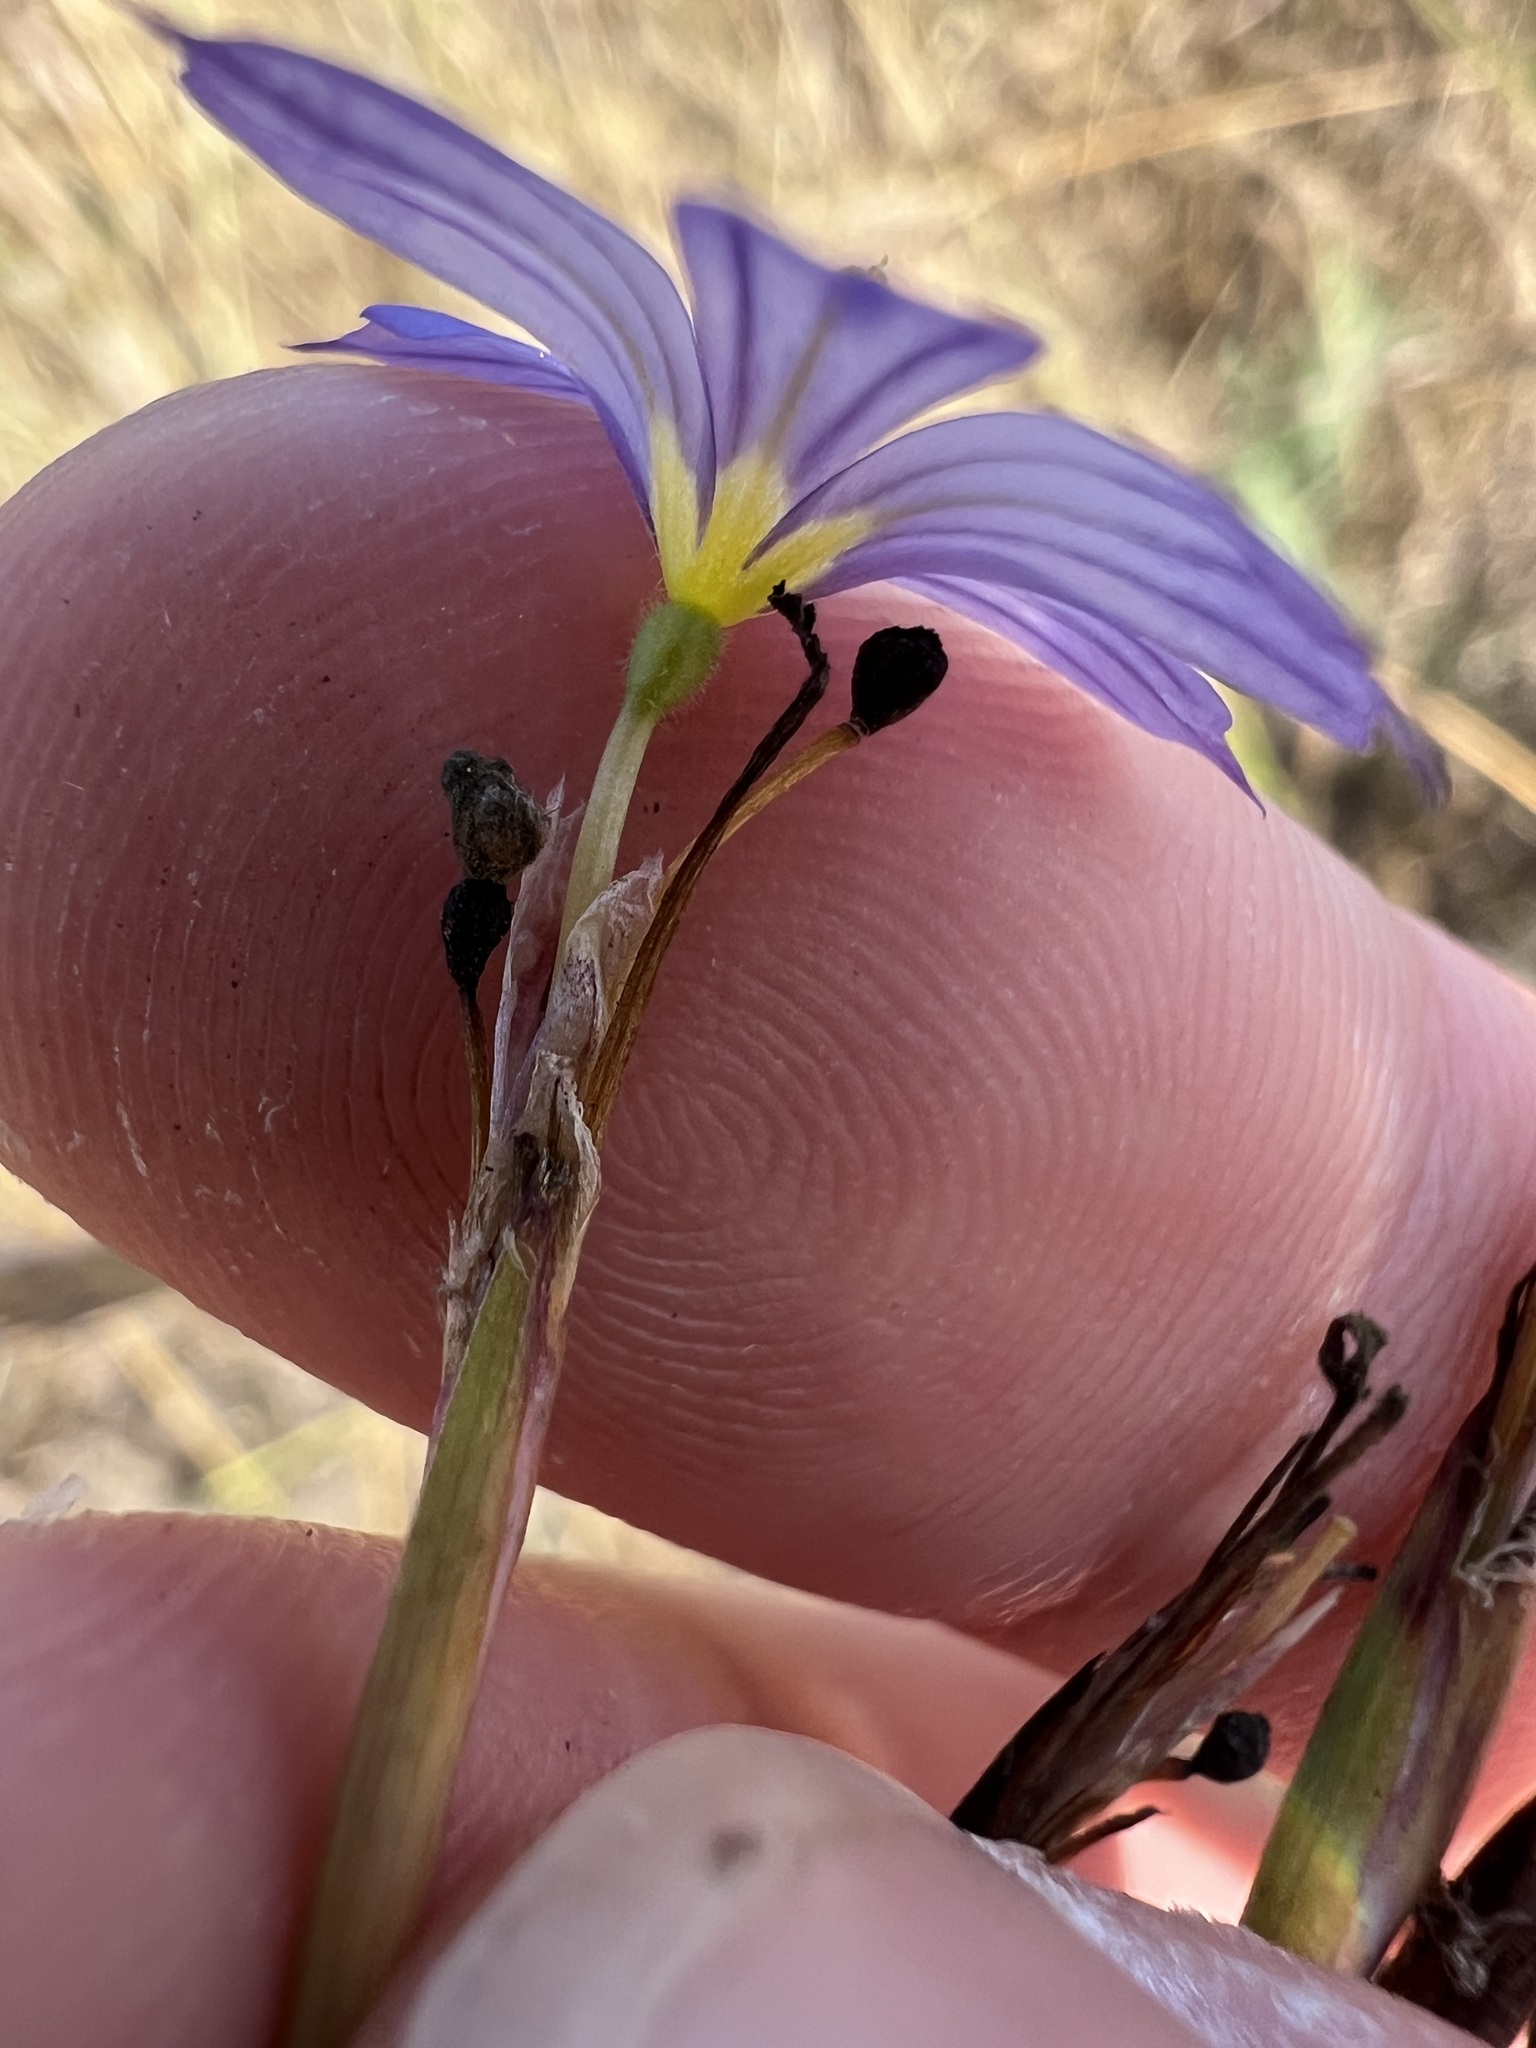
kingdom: Plantae
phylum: Tracheophyta
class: Liliopsida
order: Asparagales
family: Iridaceae
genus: Sisyrinchium
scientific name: Sisyrinchium bellum
